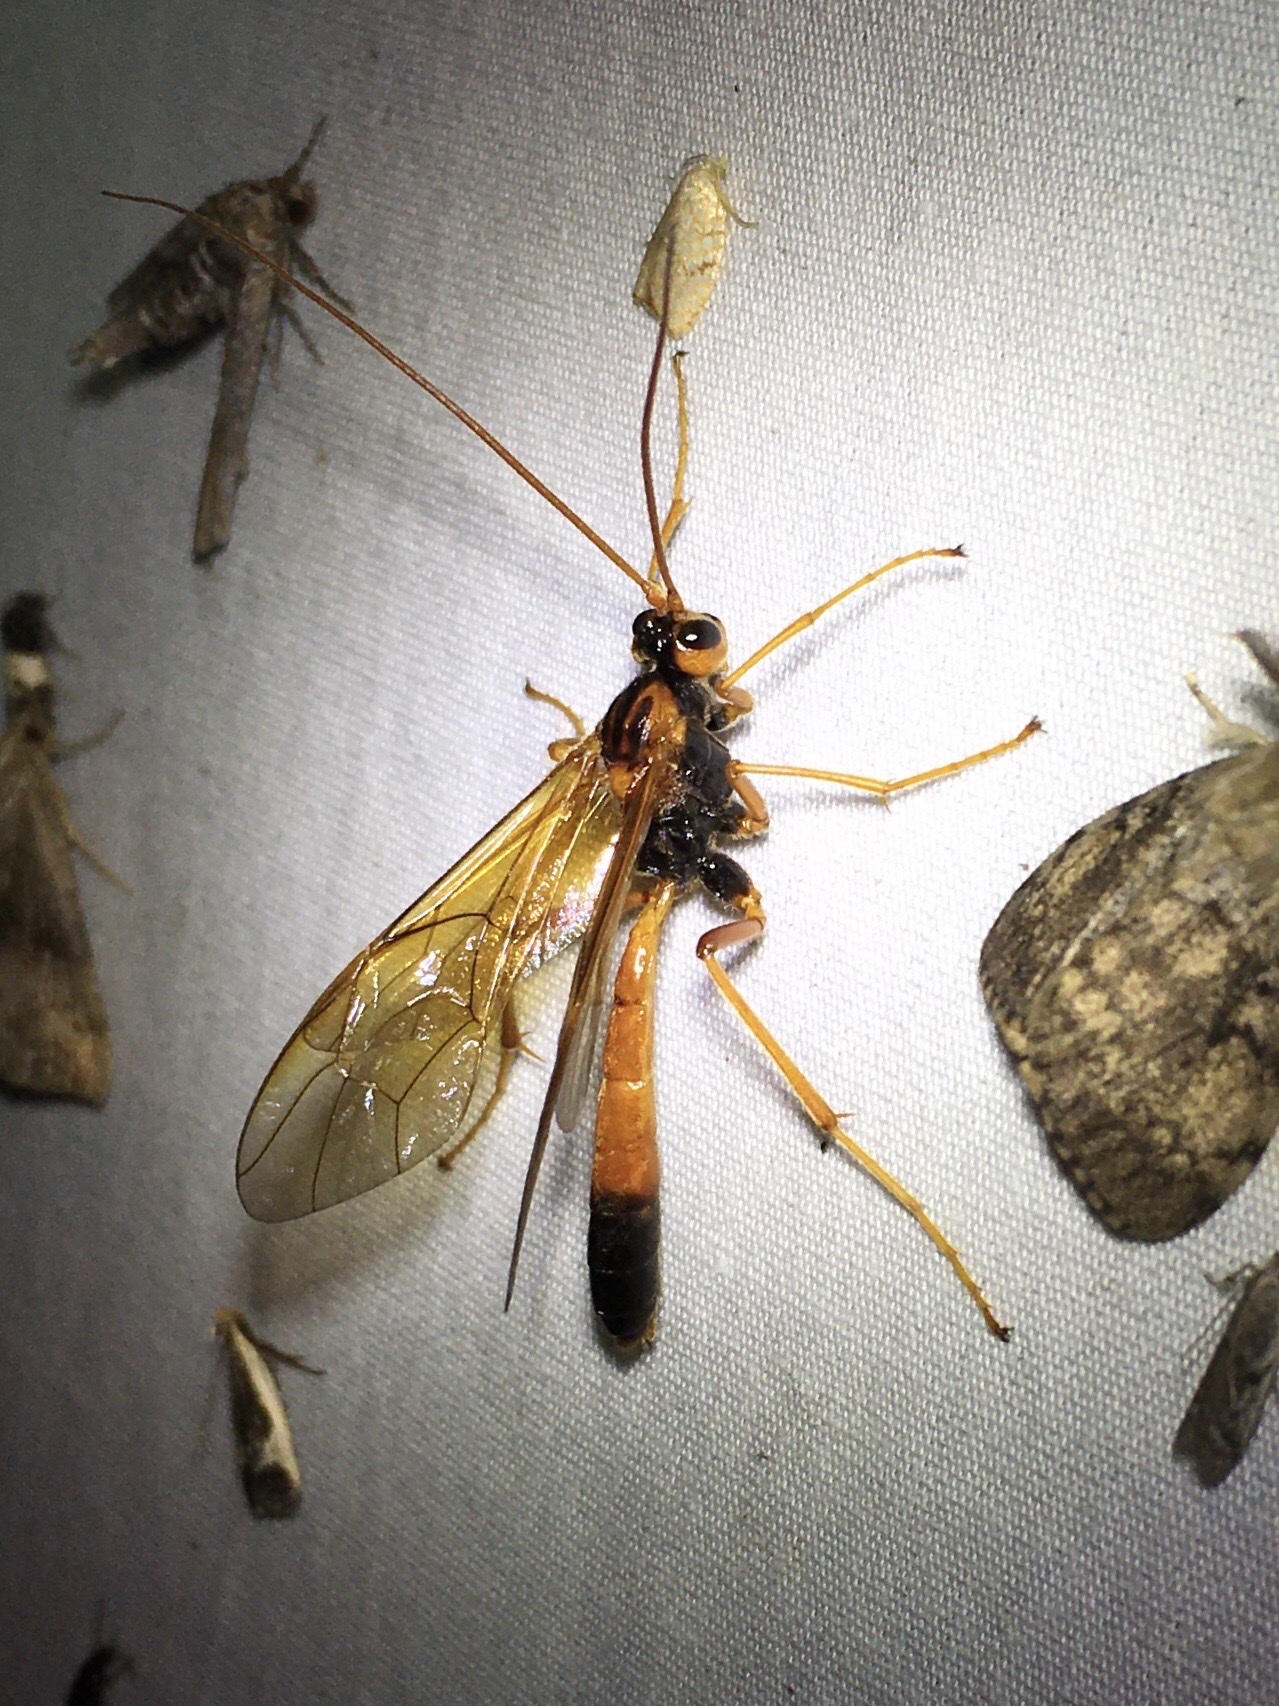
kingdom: Animalia
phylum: Arthropoda
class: Insecta
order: Hymenoptera
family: Ichneumonidae
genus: Opheltes
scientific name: Opheltes glaucopterus
